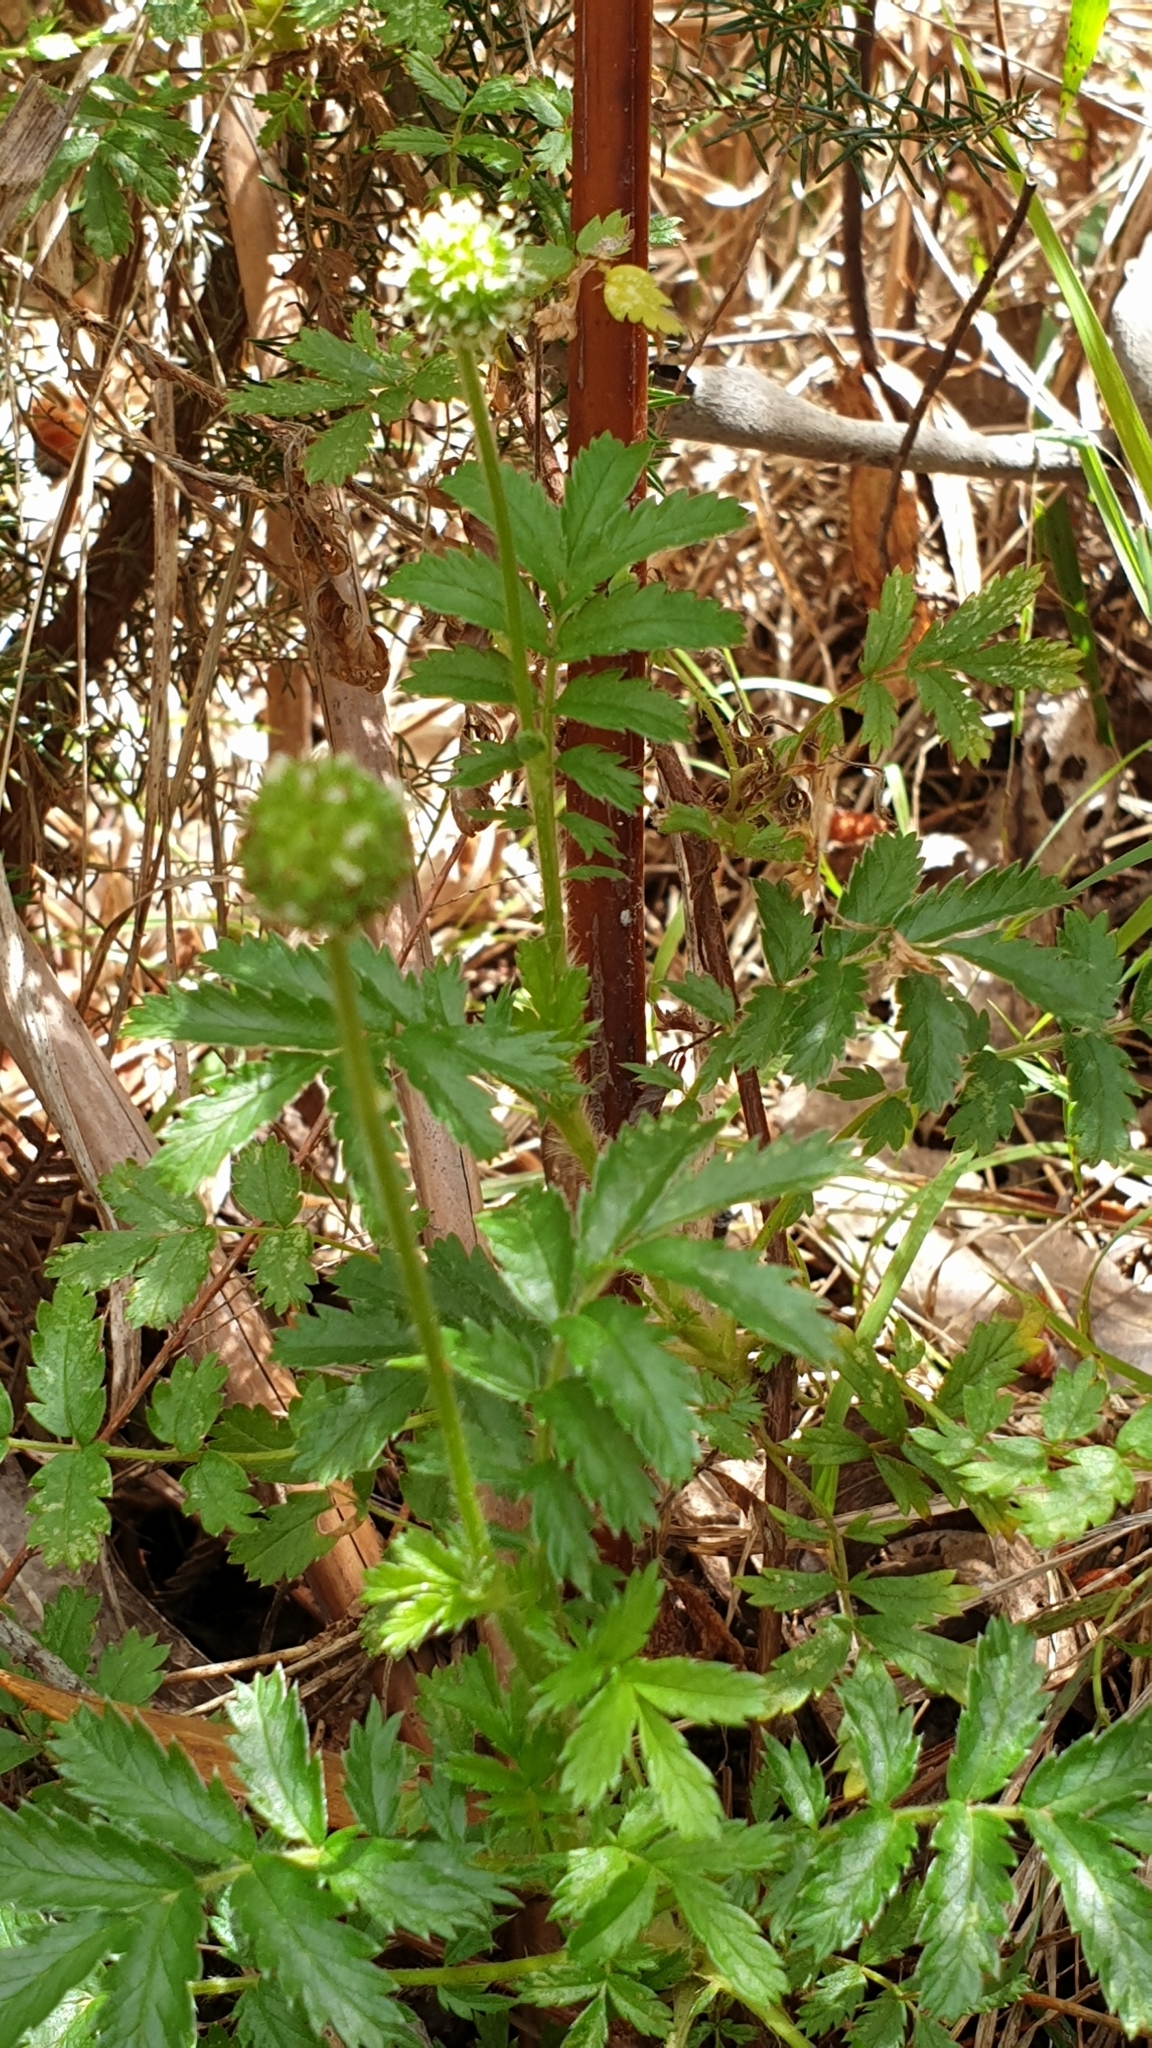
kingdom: Plantae
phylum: Tracheophyta
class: Magnoliopsida
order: Rosales
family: Rosaceae
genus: Acaena
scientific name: Acaena novae-zelandiae
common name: Pirri-pirri-bur
